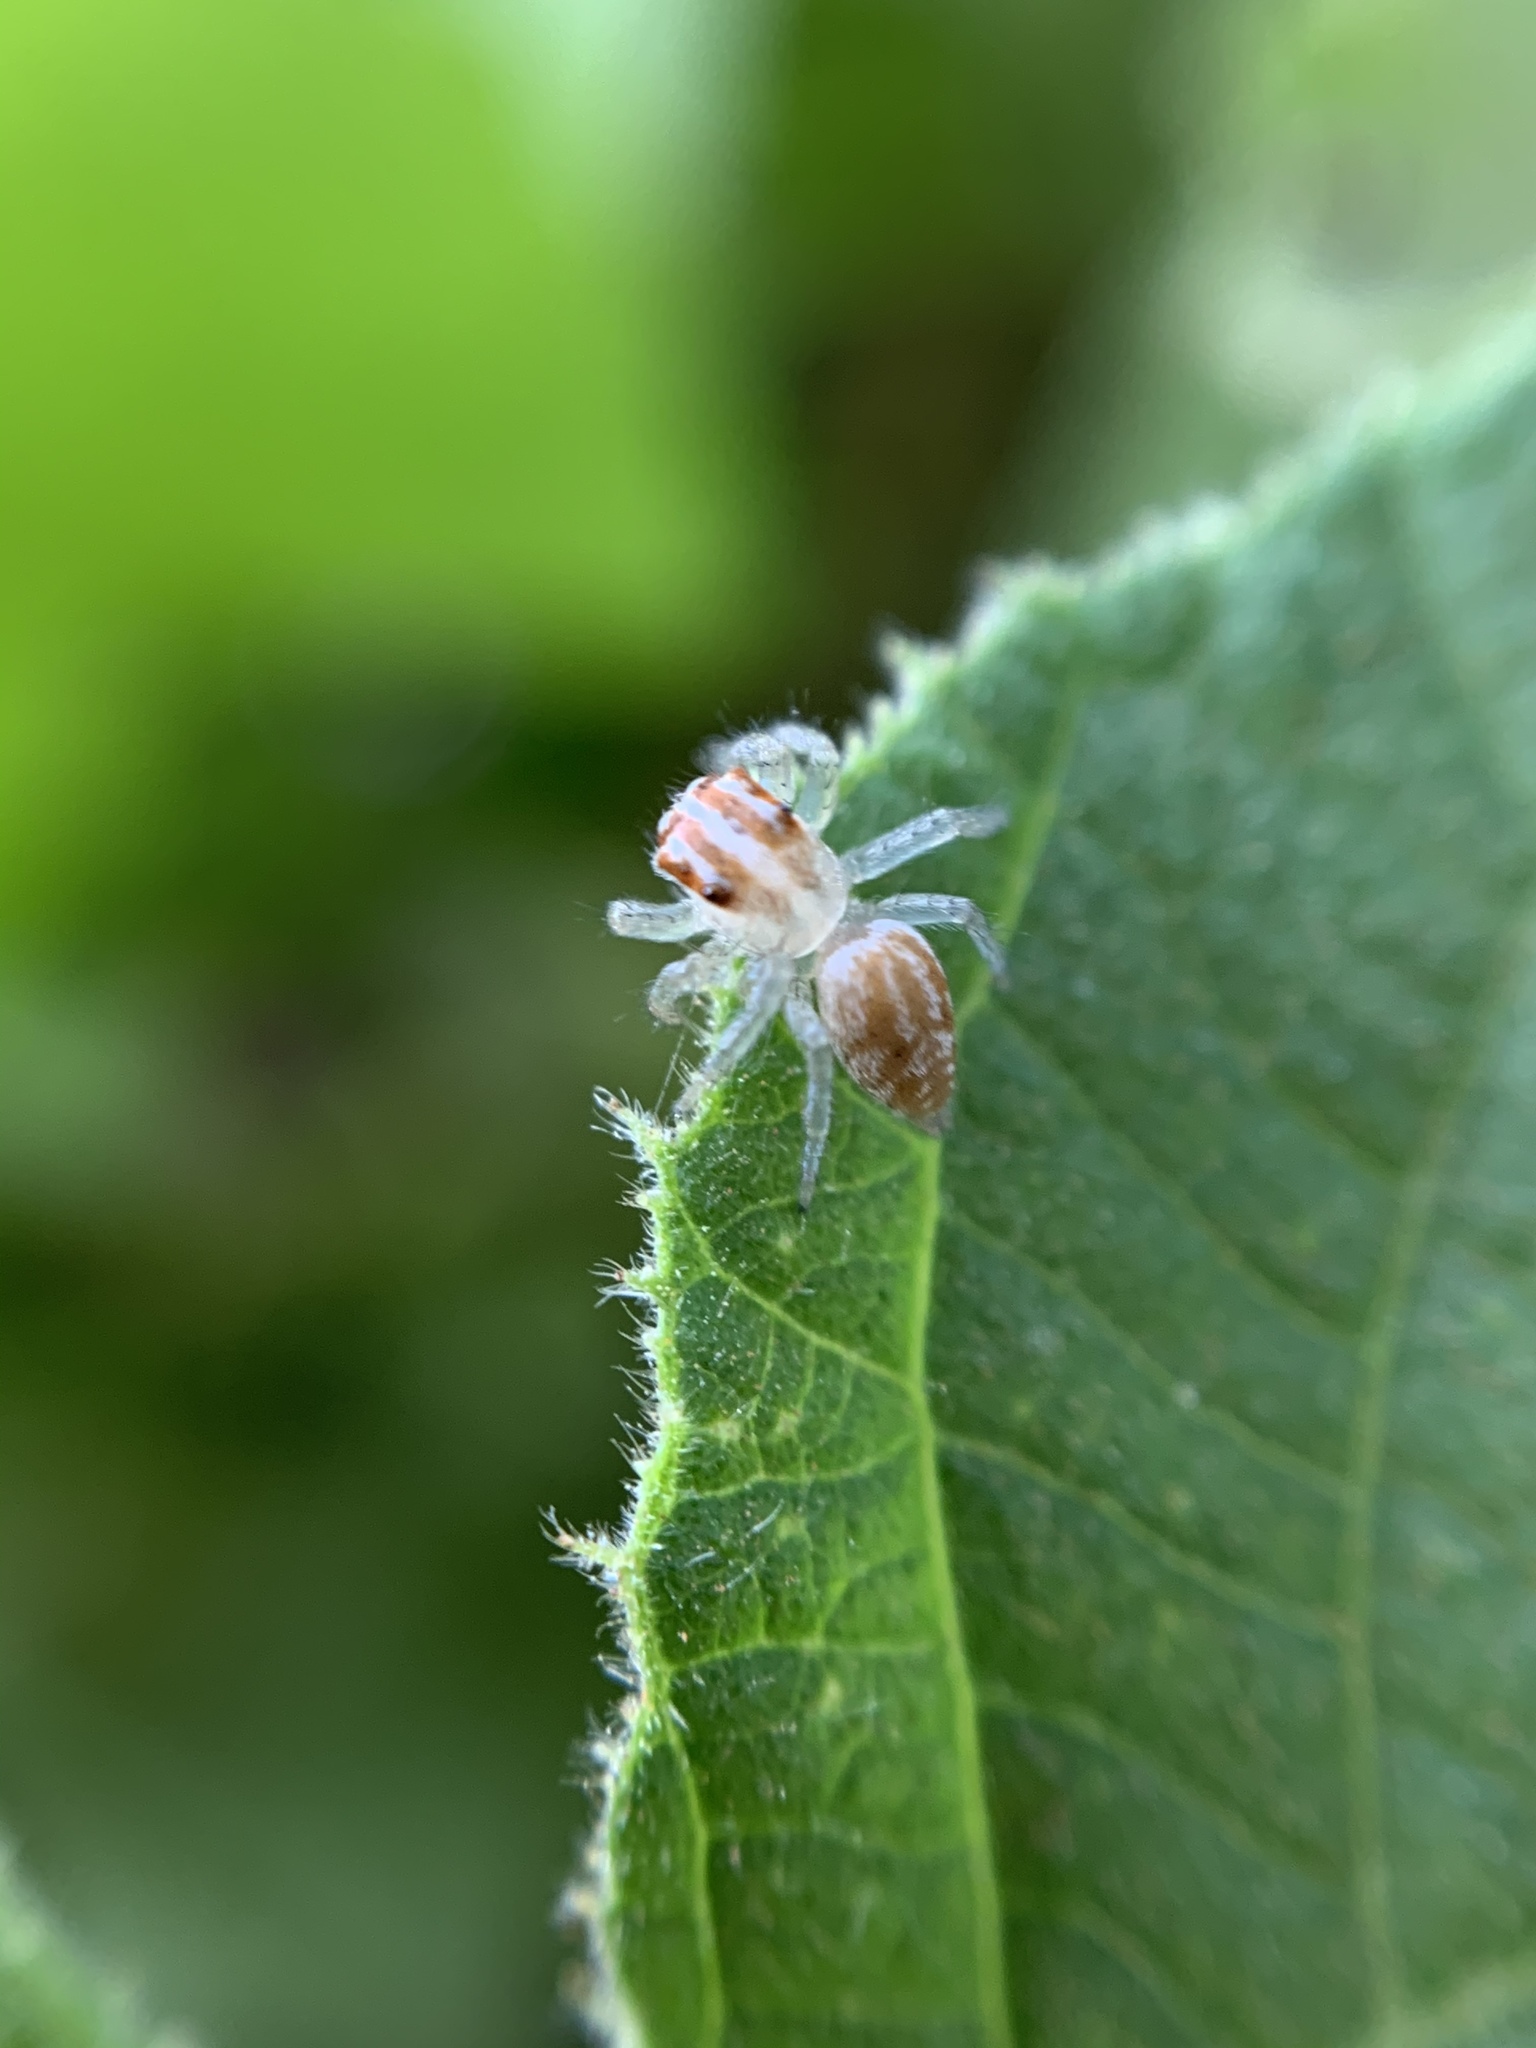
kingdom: Animalia
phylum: Arthropoda
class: Arachnida
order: Araneae
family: Salticidae
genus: Chira
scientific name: Chira gounellei
